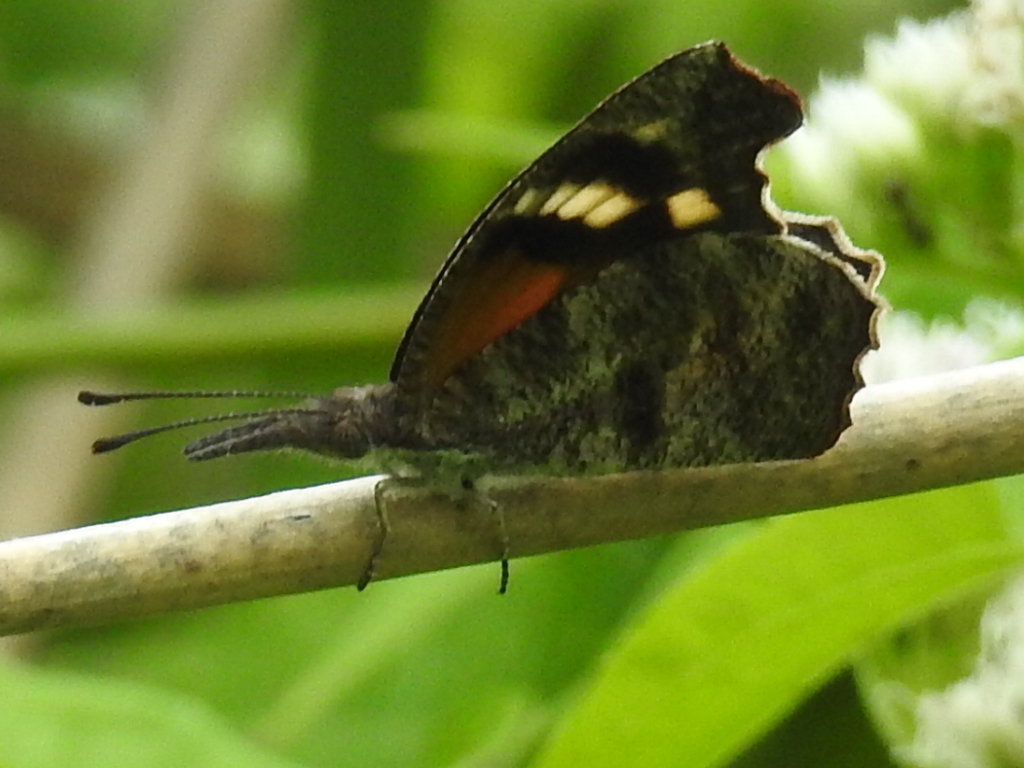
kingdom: Animalia
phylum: Arthropoda
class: Insecta
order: Lepidoptera
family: Nymphalidae
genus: Libytheana
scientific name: Libytheana carinenta
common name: American snout
